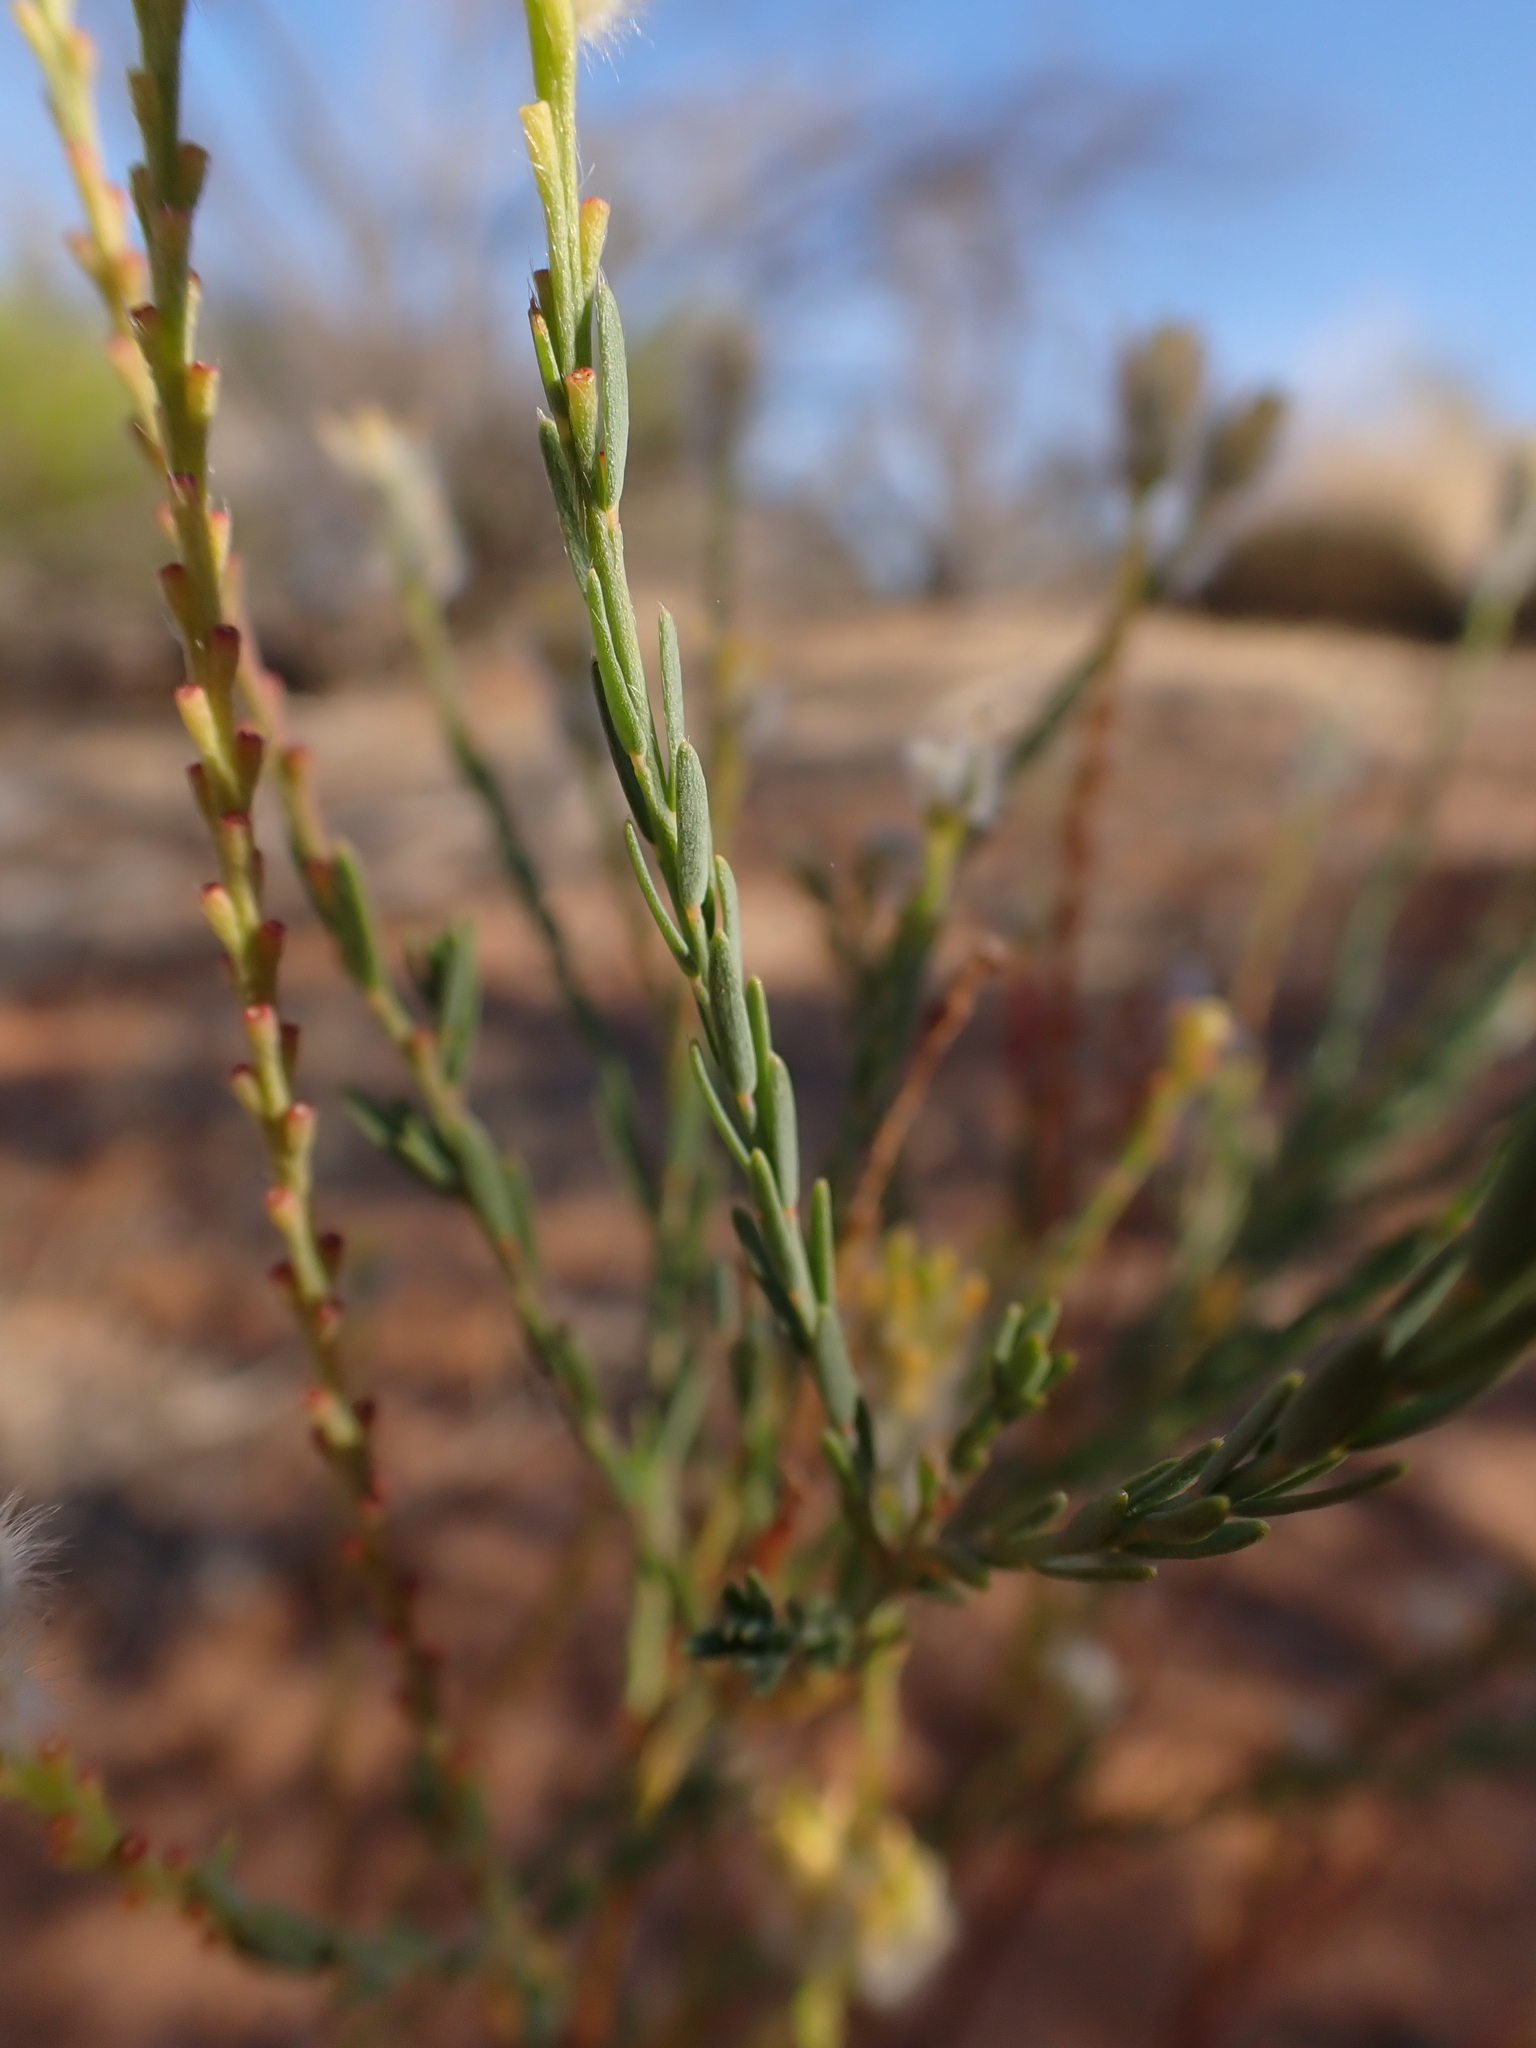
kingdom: Plantae
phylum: Tracheophyta
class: Magnoliopsida
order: Malvales
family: Thymelaeaceae
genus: Pimelea
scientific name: Pimelea trichostachya
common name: Poverty-bush
